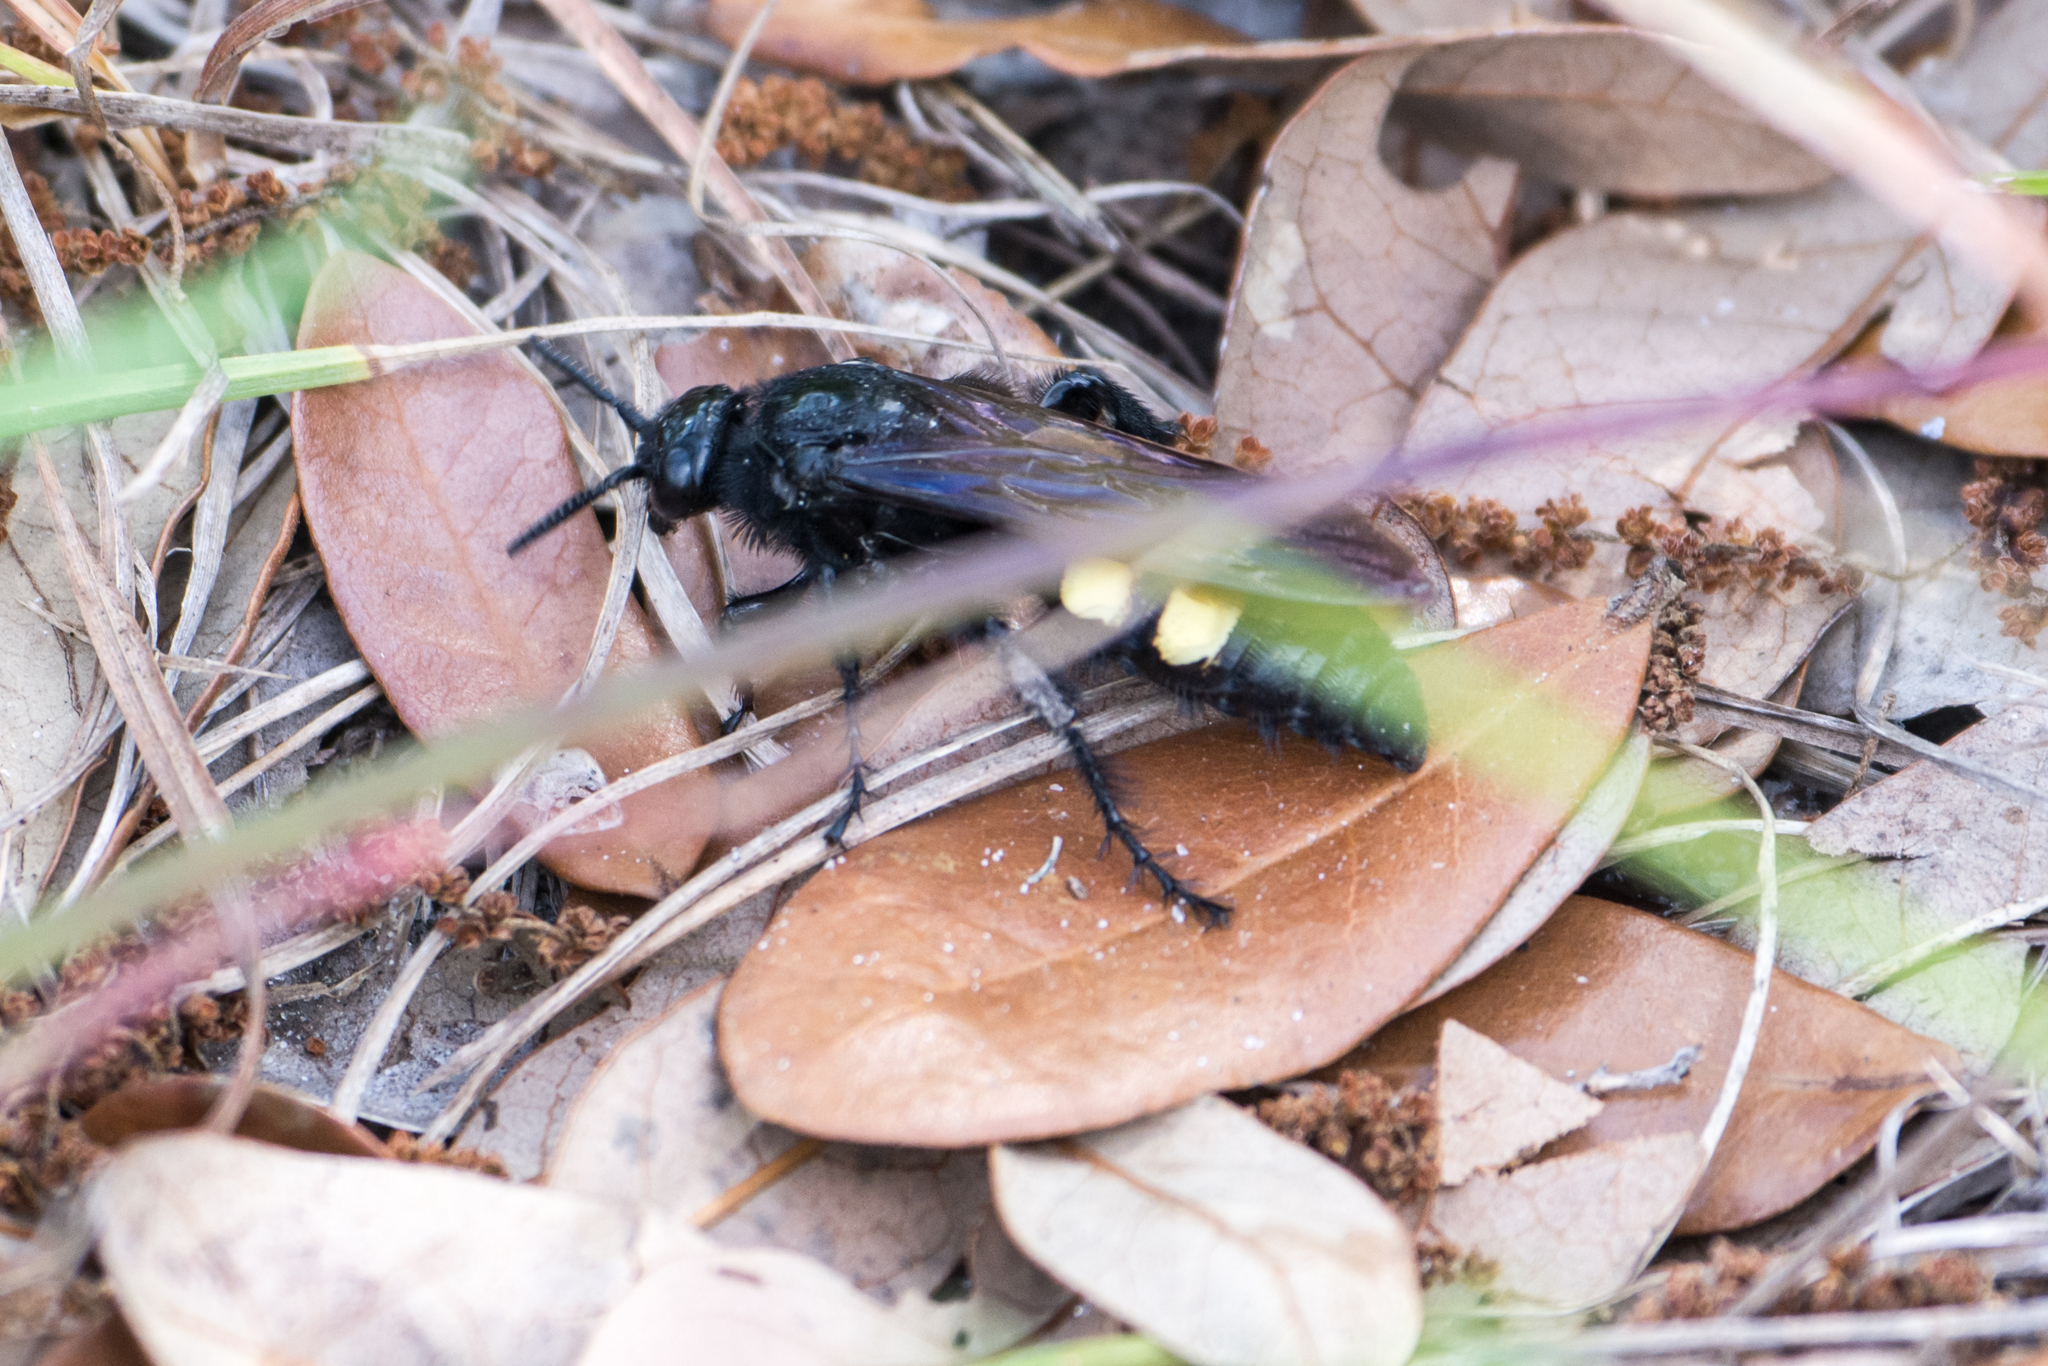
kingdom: Animalia
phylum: Arthropoda
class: Insecta
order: Hymenoptera
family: Scoliidae
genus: Pygodasis
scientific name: Pygodasis
